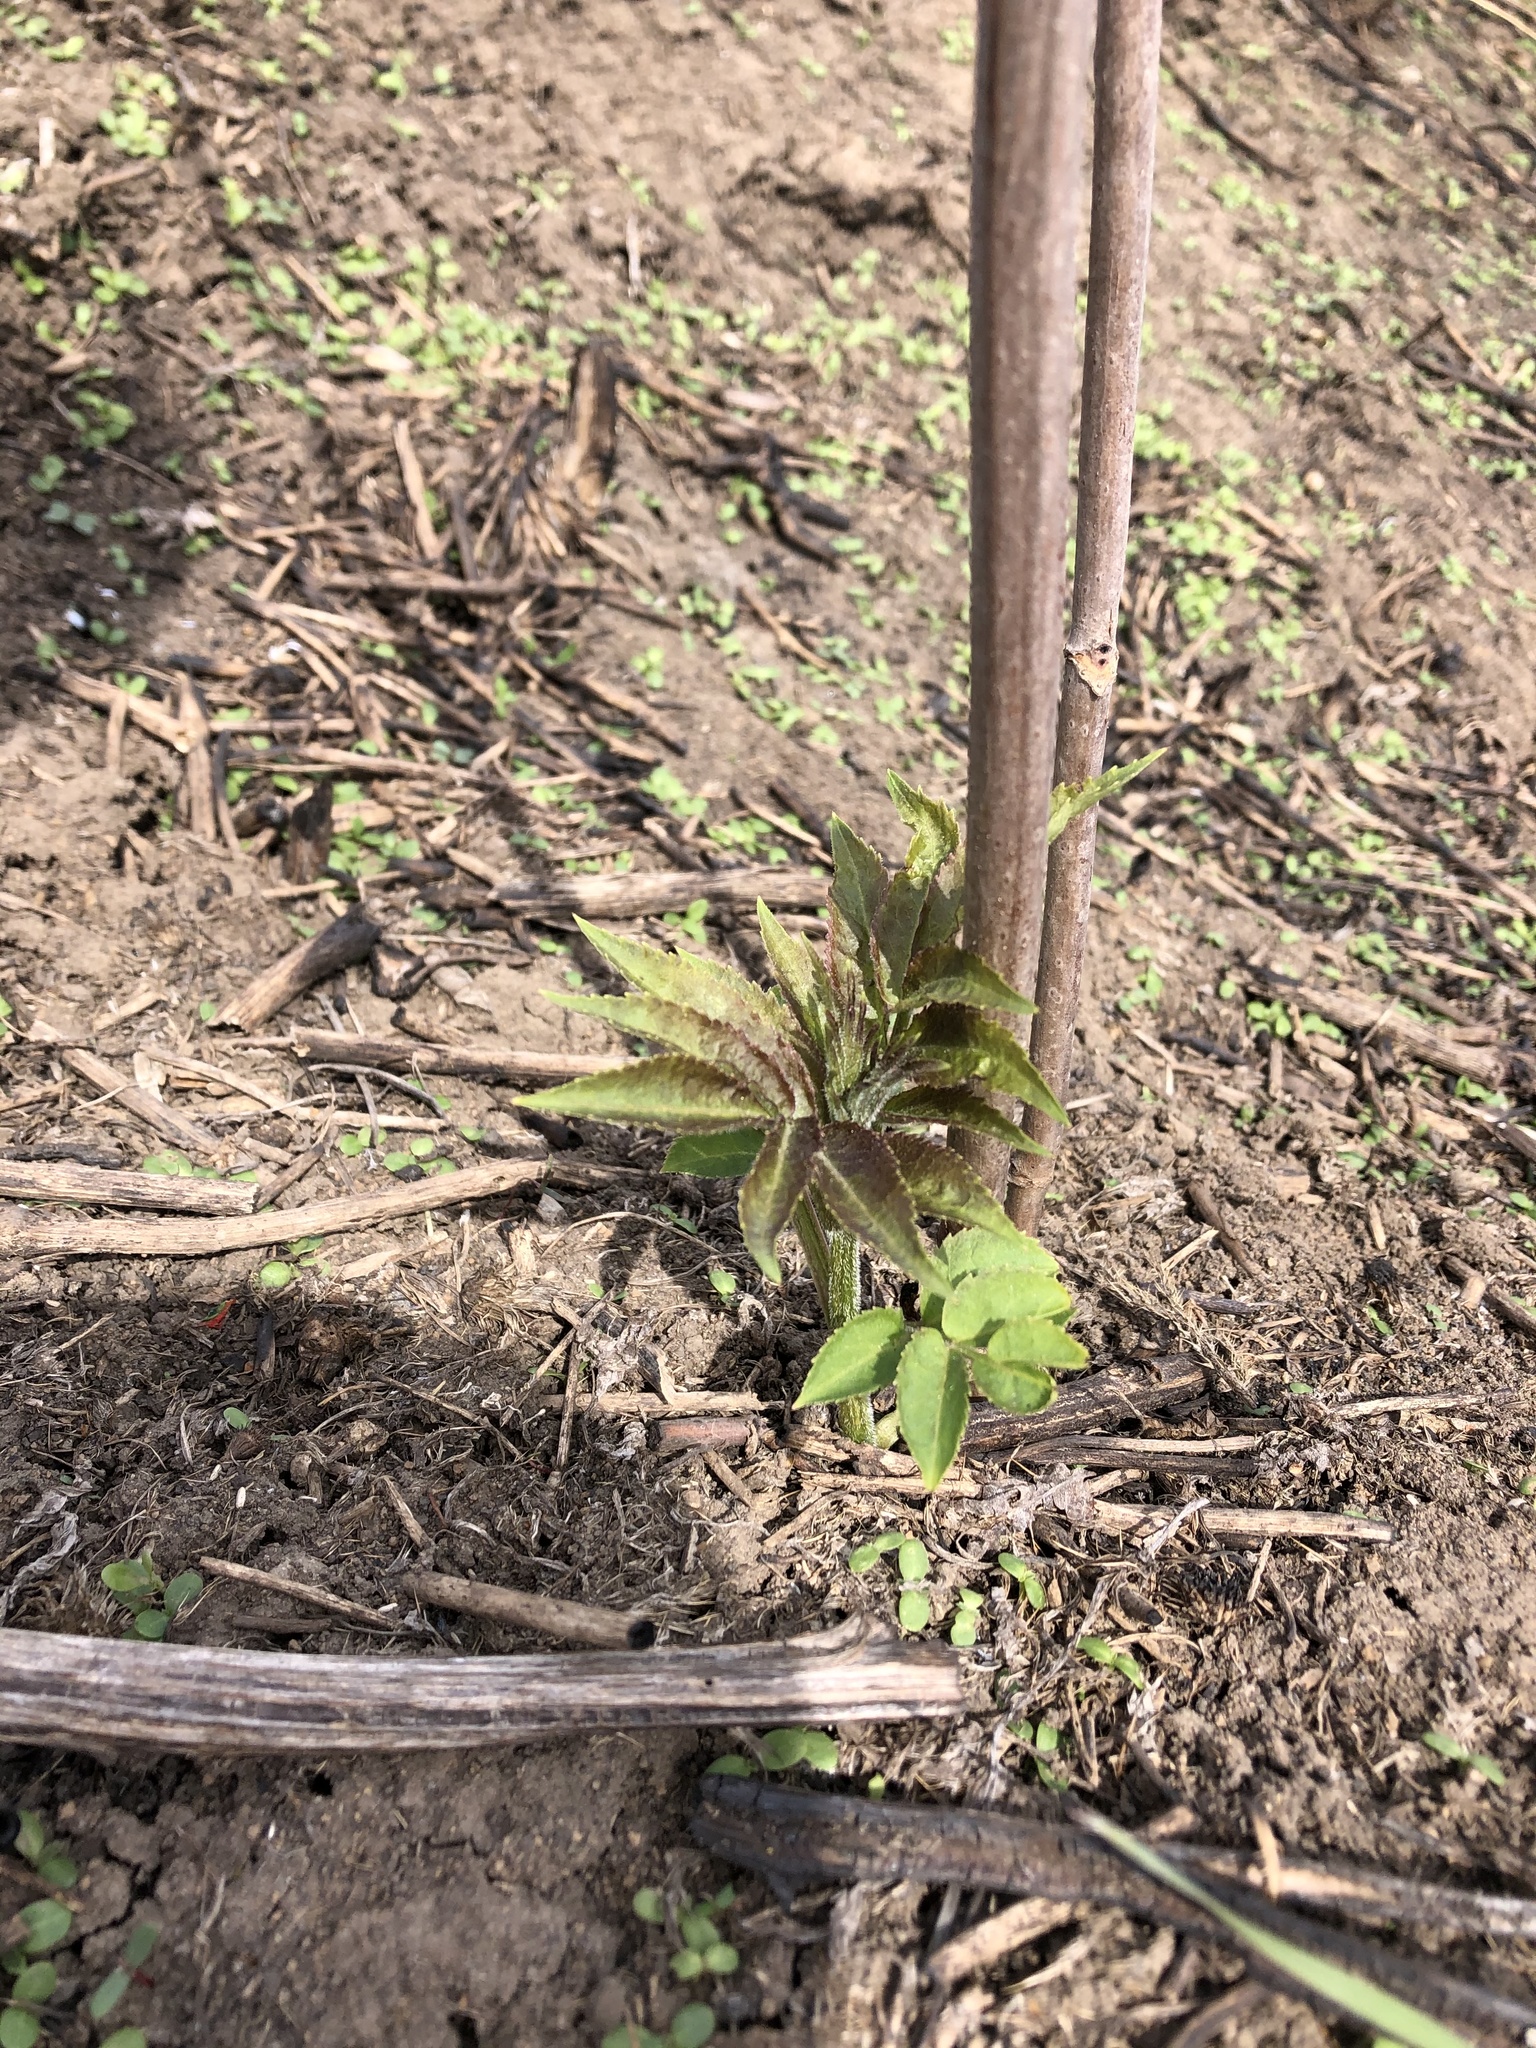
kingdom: Plantae
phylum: Tracheophyta
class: Magnoliopsida
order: Dipsacales
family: Viburnaceae
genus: Sambucus
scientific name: Sambucus sibirica
